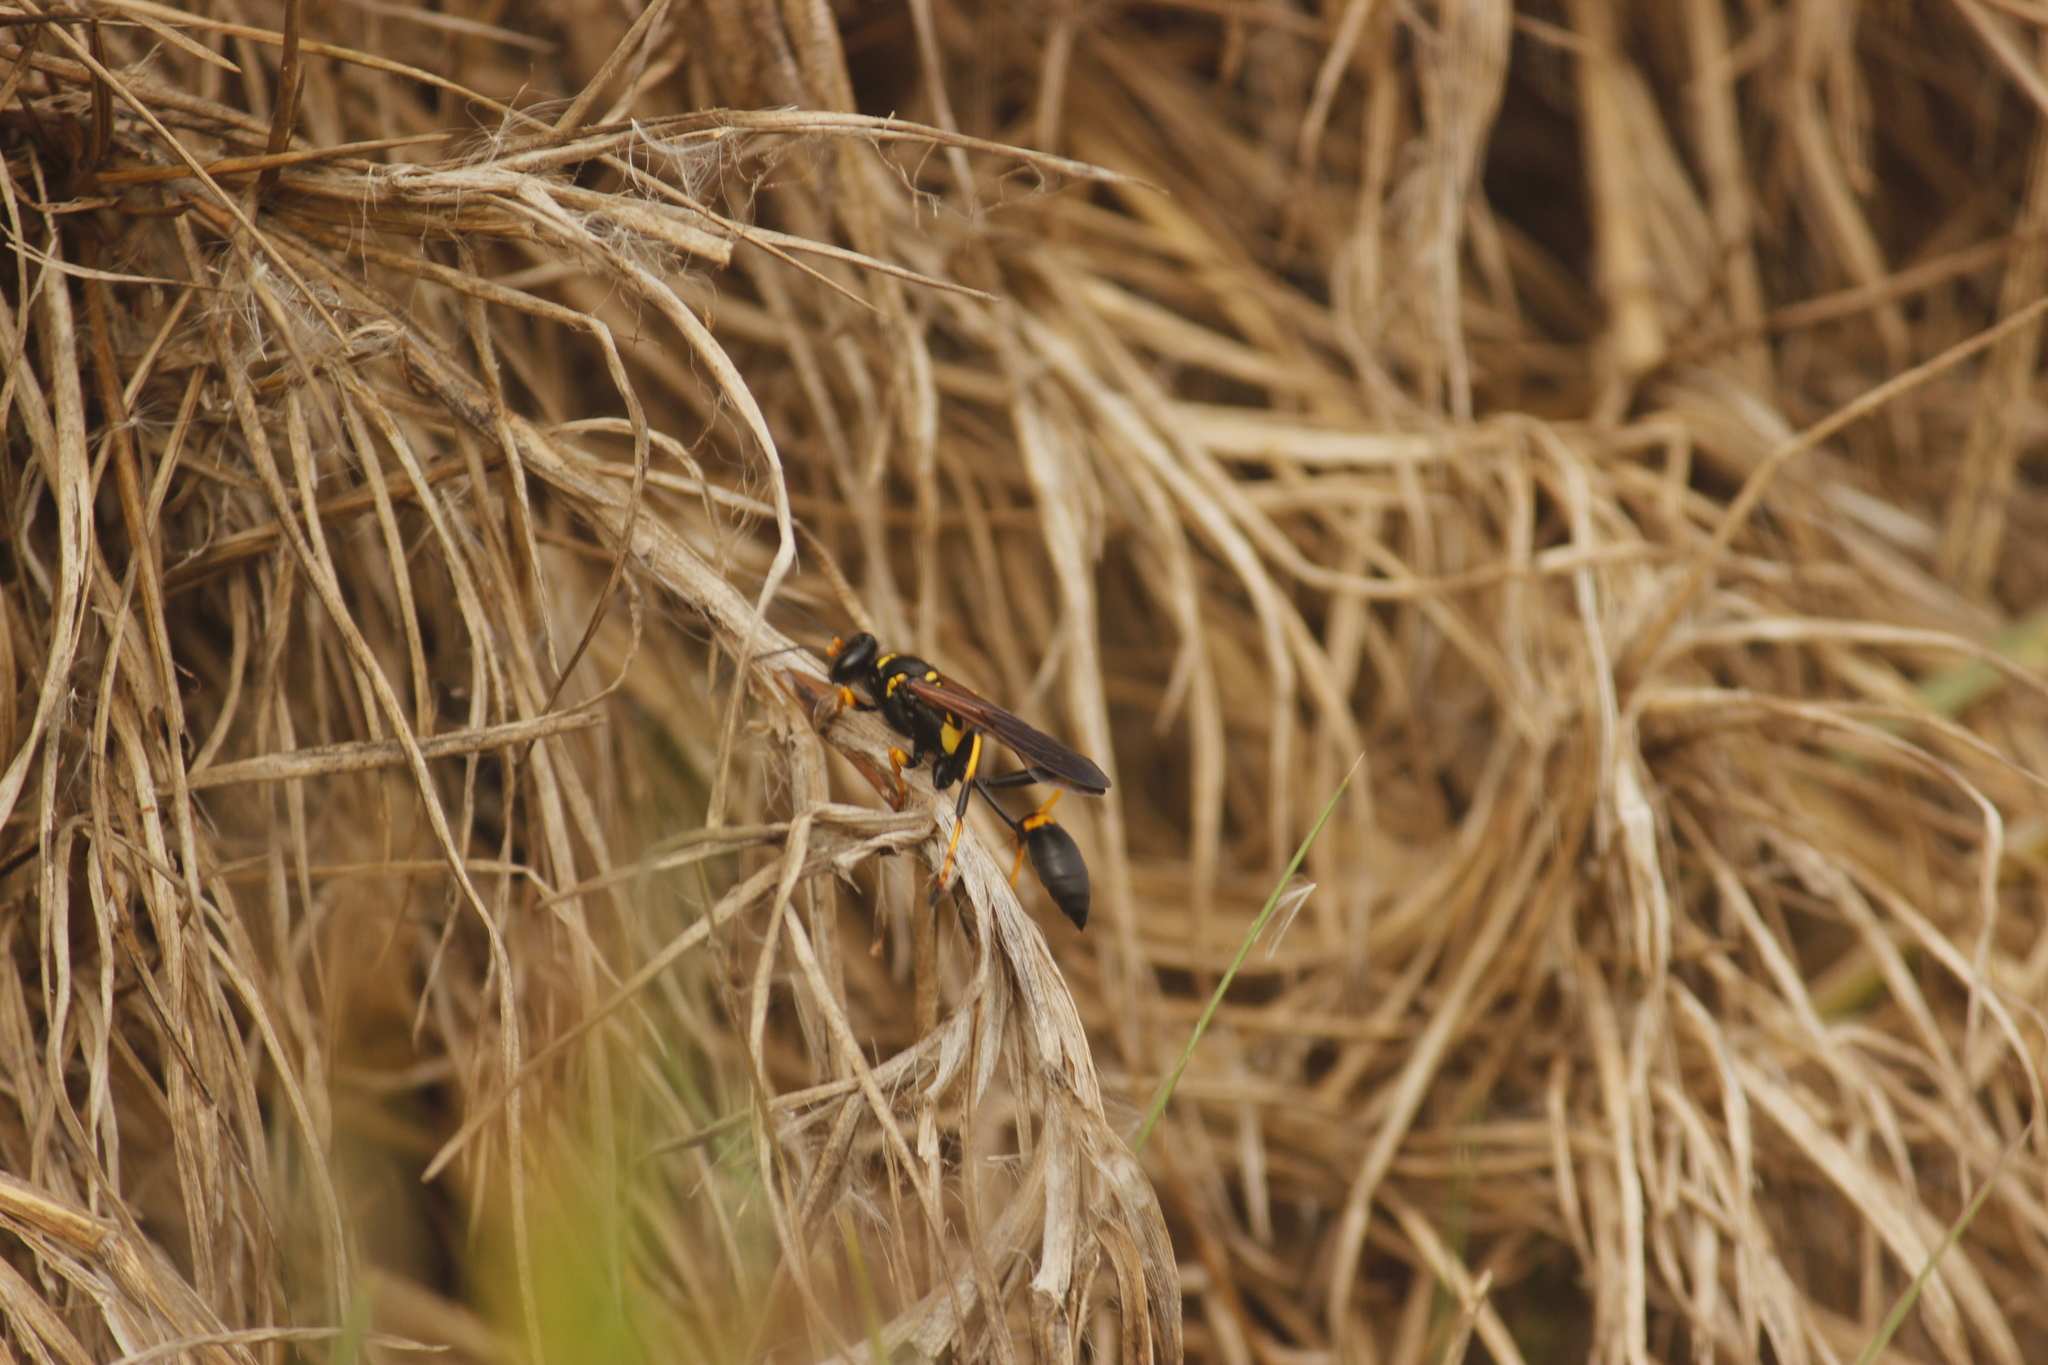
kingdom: Animalia
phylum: Arthropoda
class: Insecta
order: Hymenoptera
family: Sphecidae
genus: Sceliphron
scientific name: Sceliphron caementarium
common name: Mud dauber
